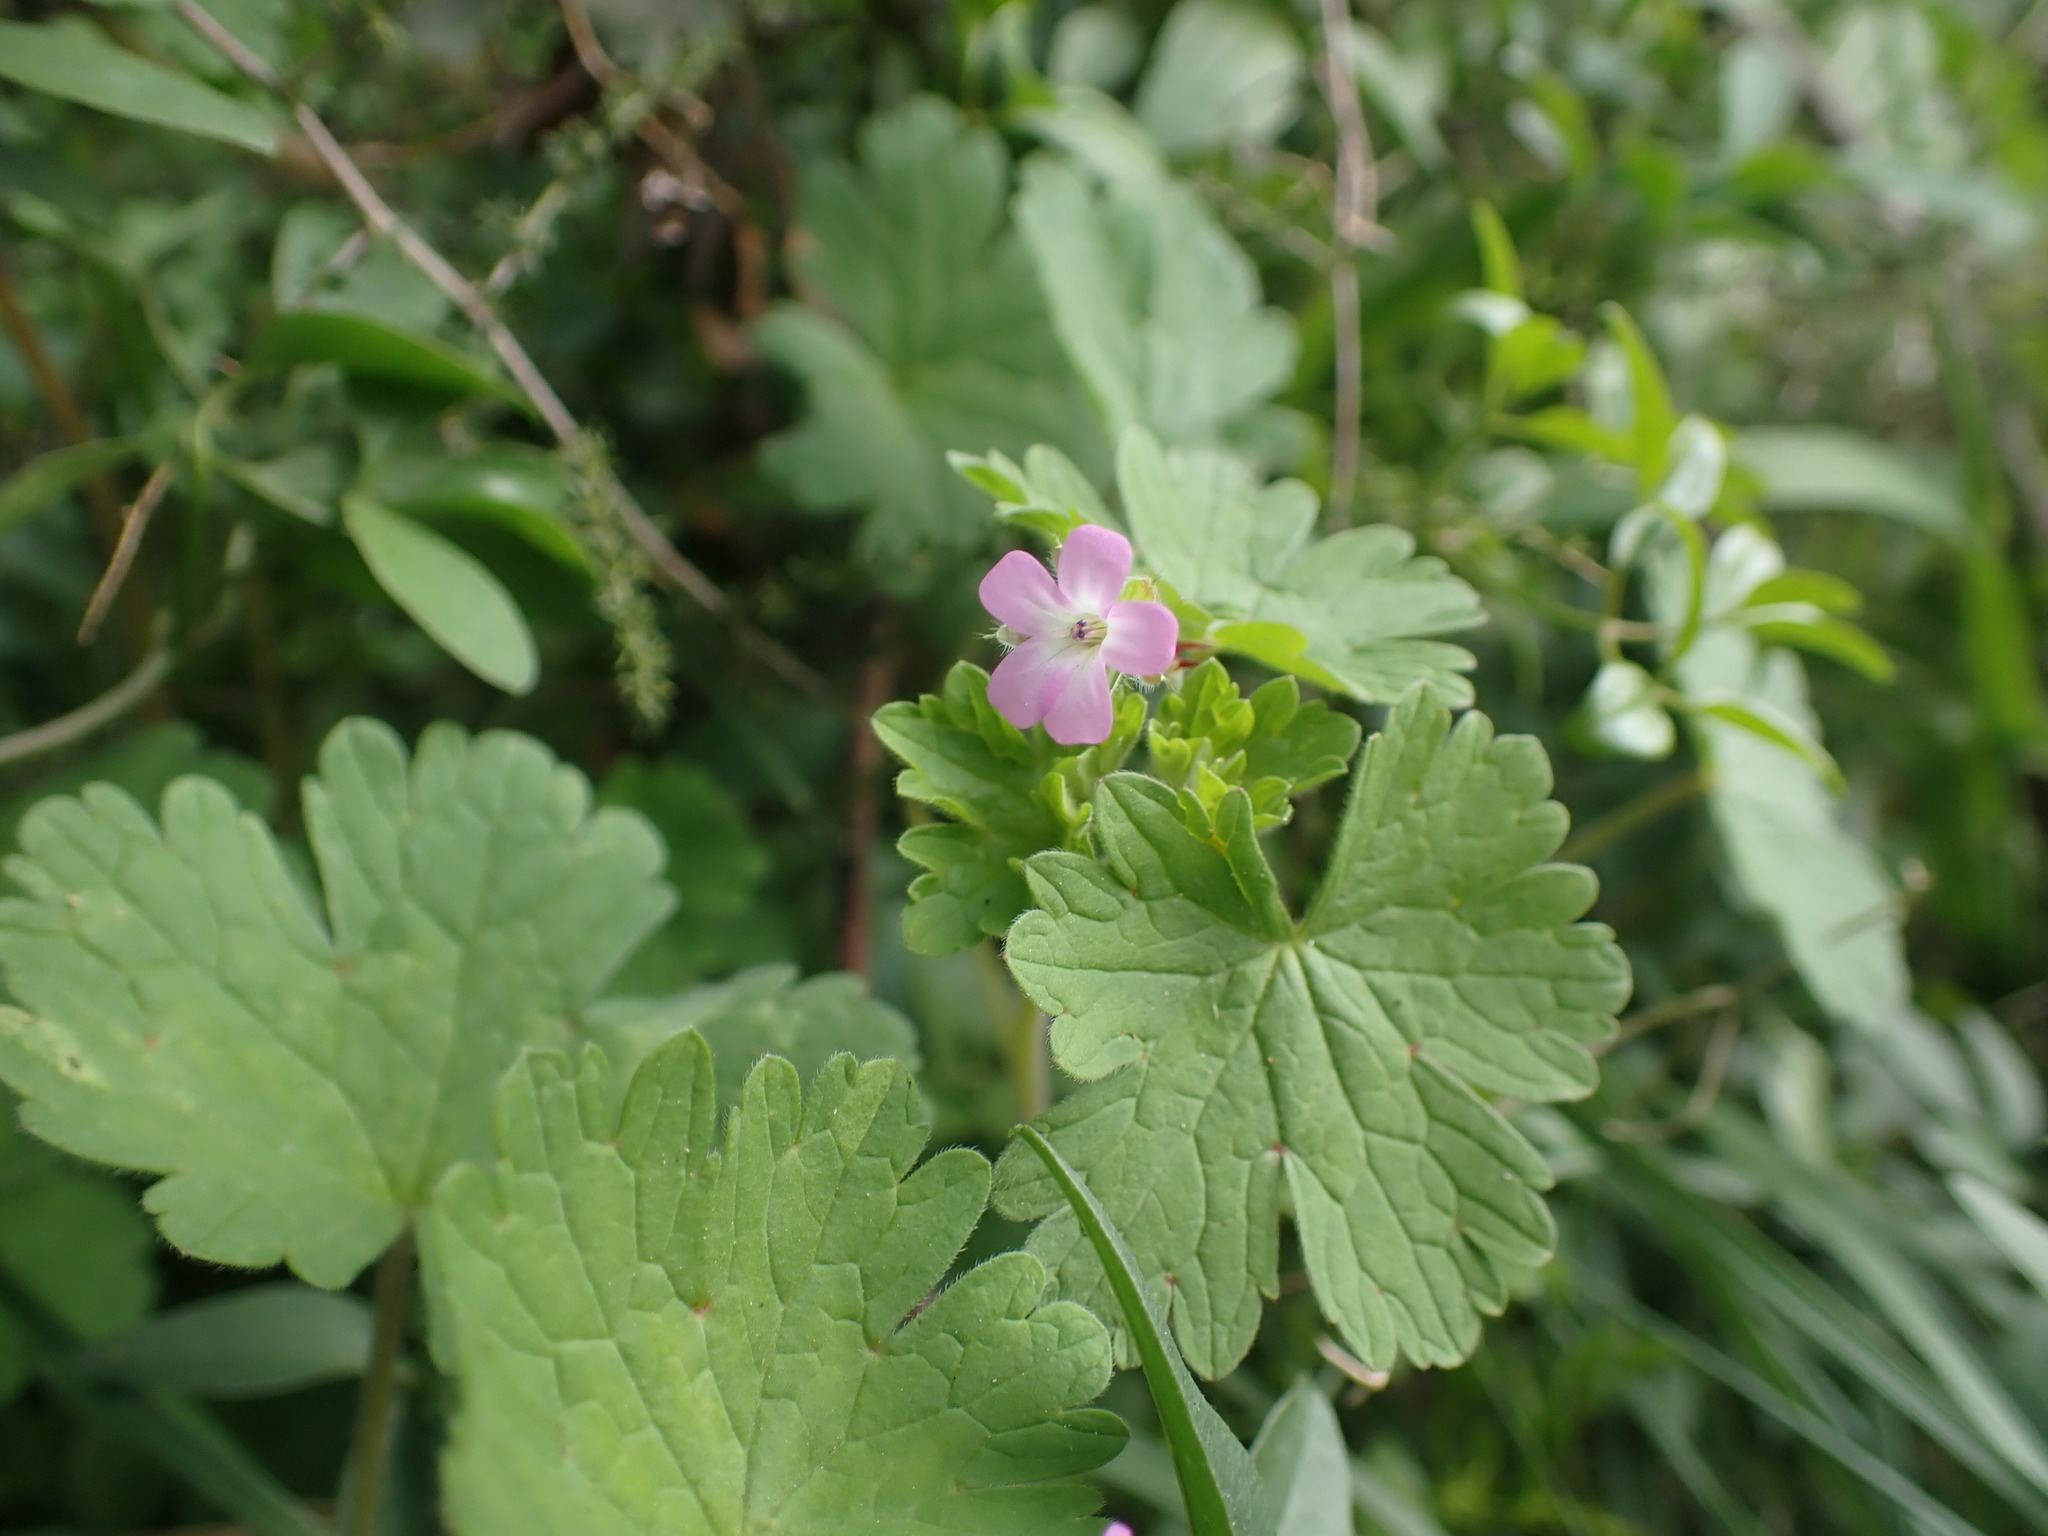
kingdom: Plantae
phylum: Tracheophyta
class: Magnoliopsida
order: Geraniales
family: Geraniaceae
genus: Geranium
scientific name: Geranium rotundifolium
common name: Round-leaved crane's-bill
